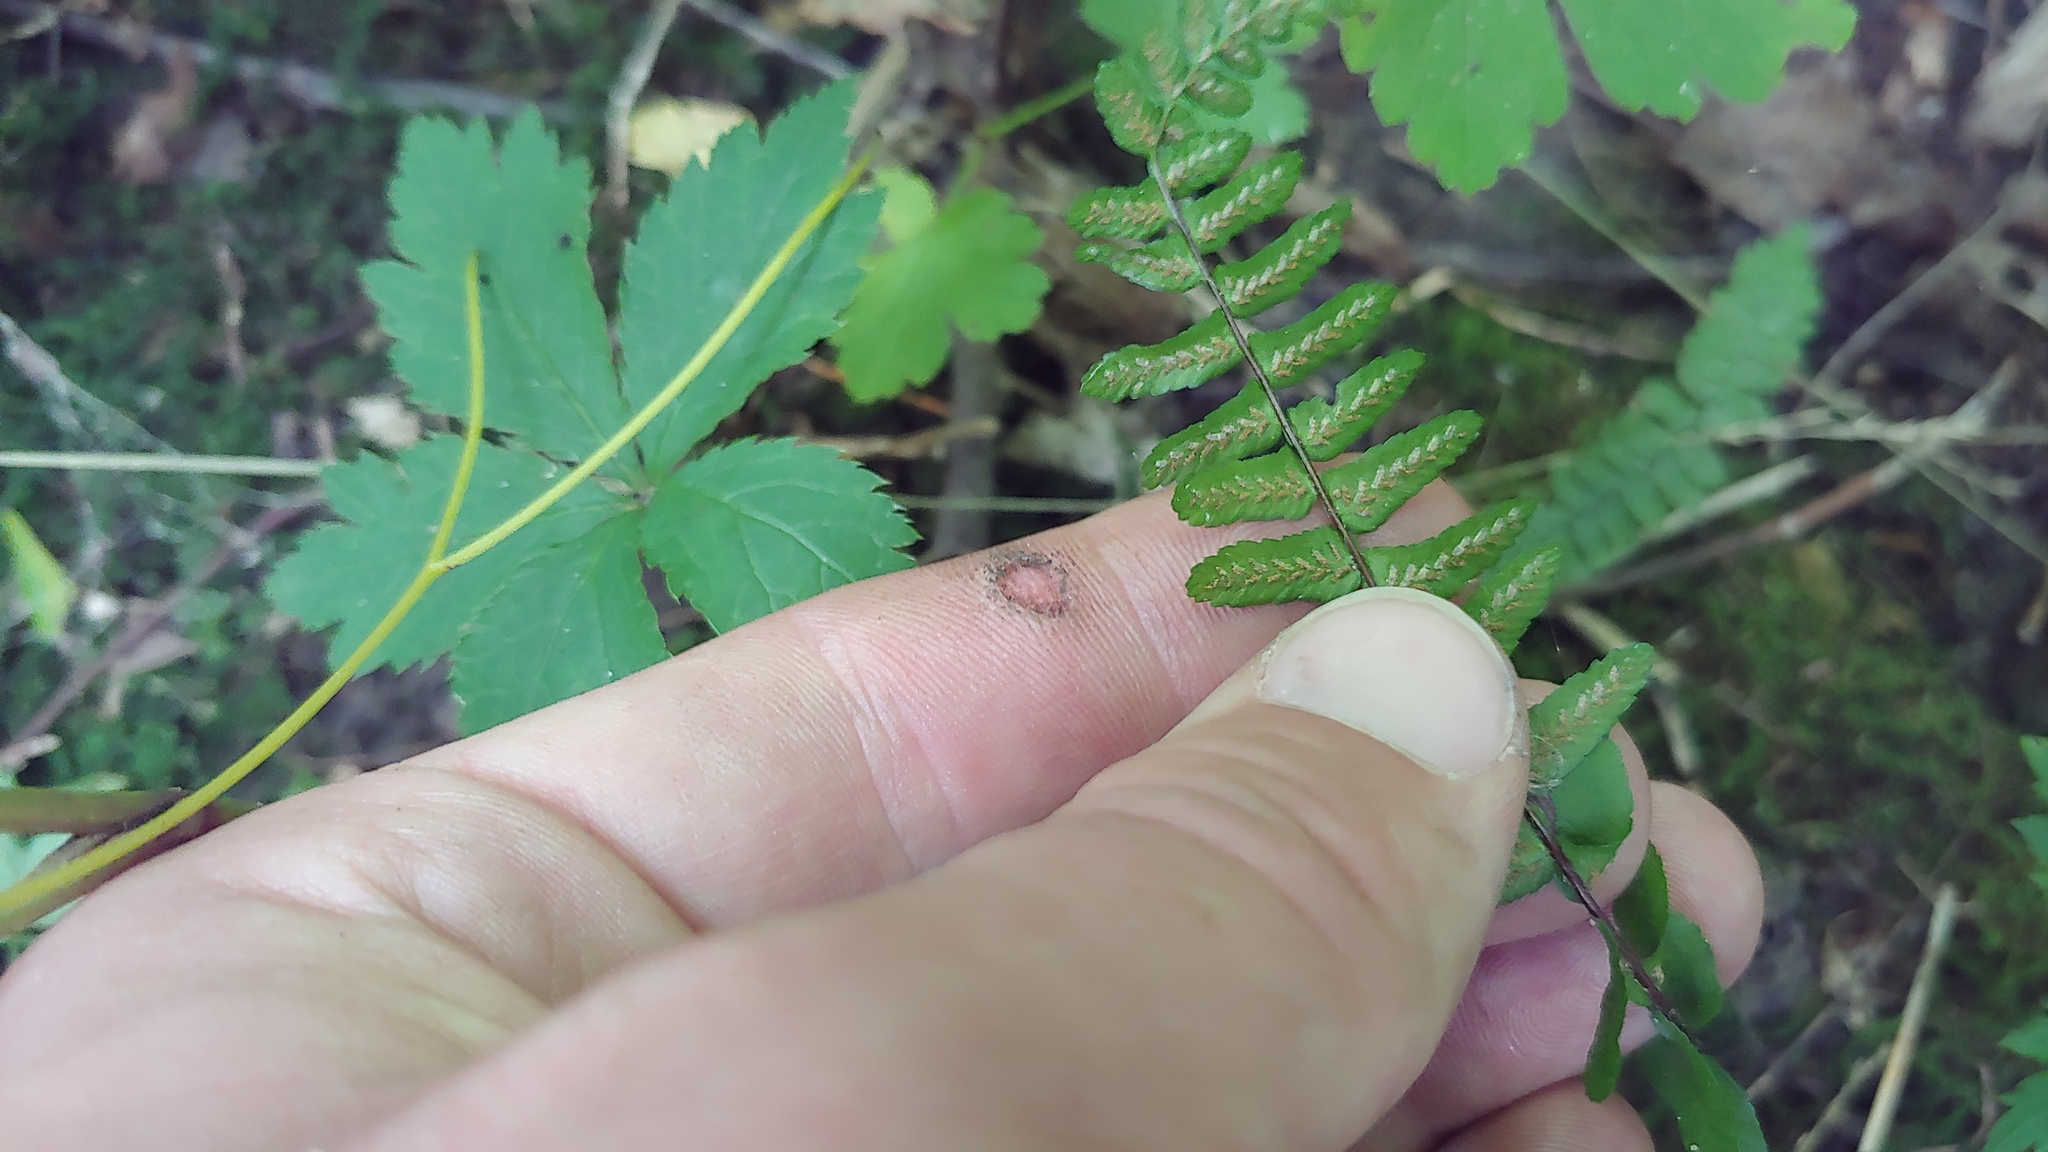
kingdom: Plantae
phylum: Tracheophyta
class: Polypodiopsida
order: Polypodiales
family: Aspleniaceae
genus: Asplenium
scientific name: Asplenium platyneuron
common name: Ebony spleenwort
